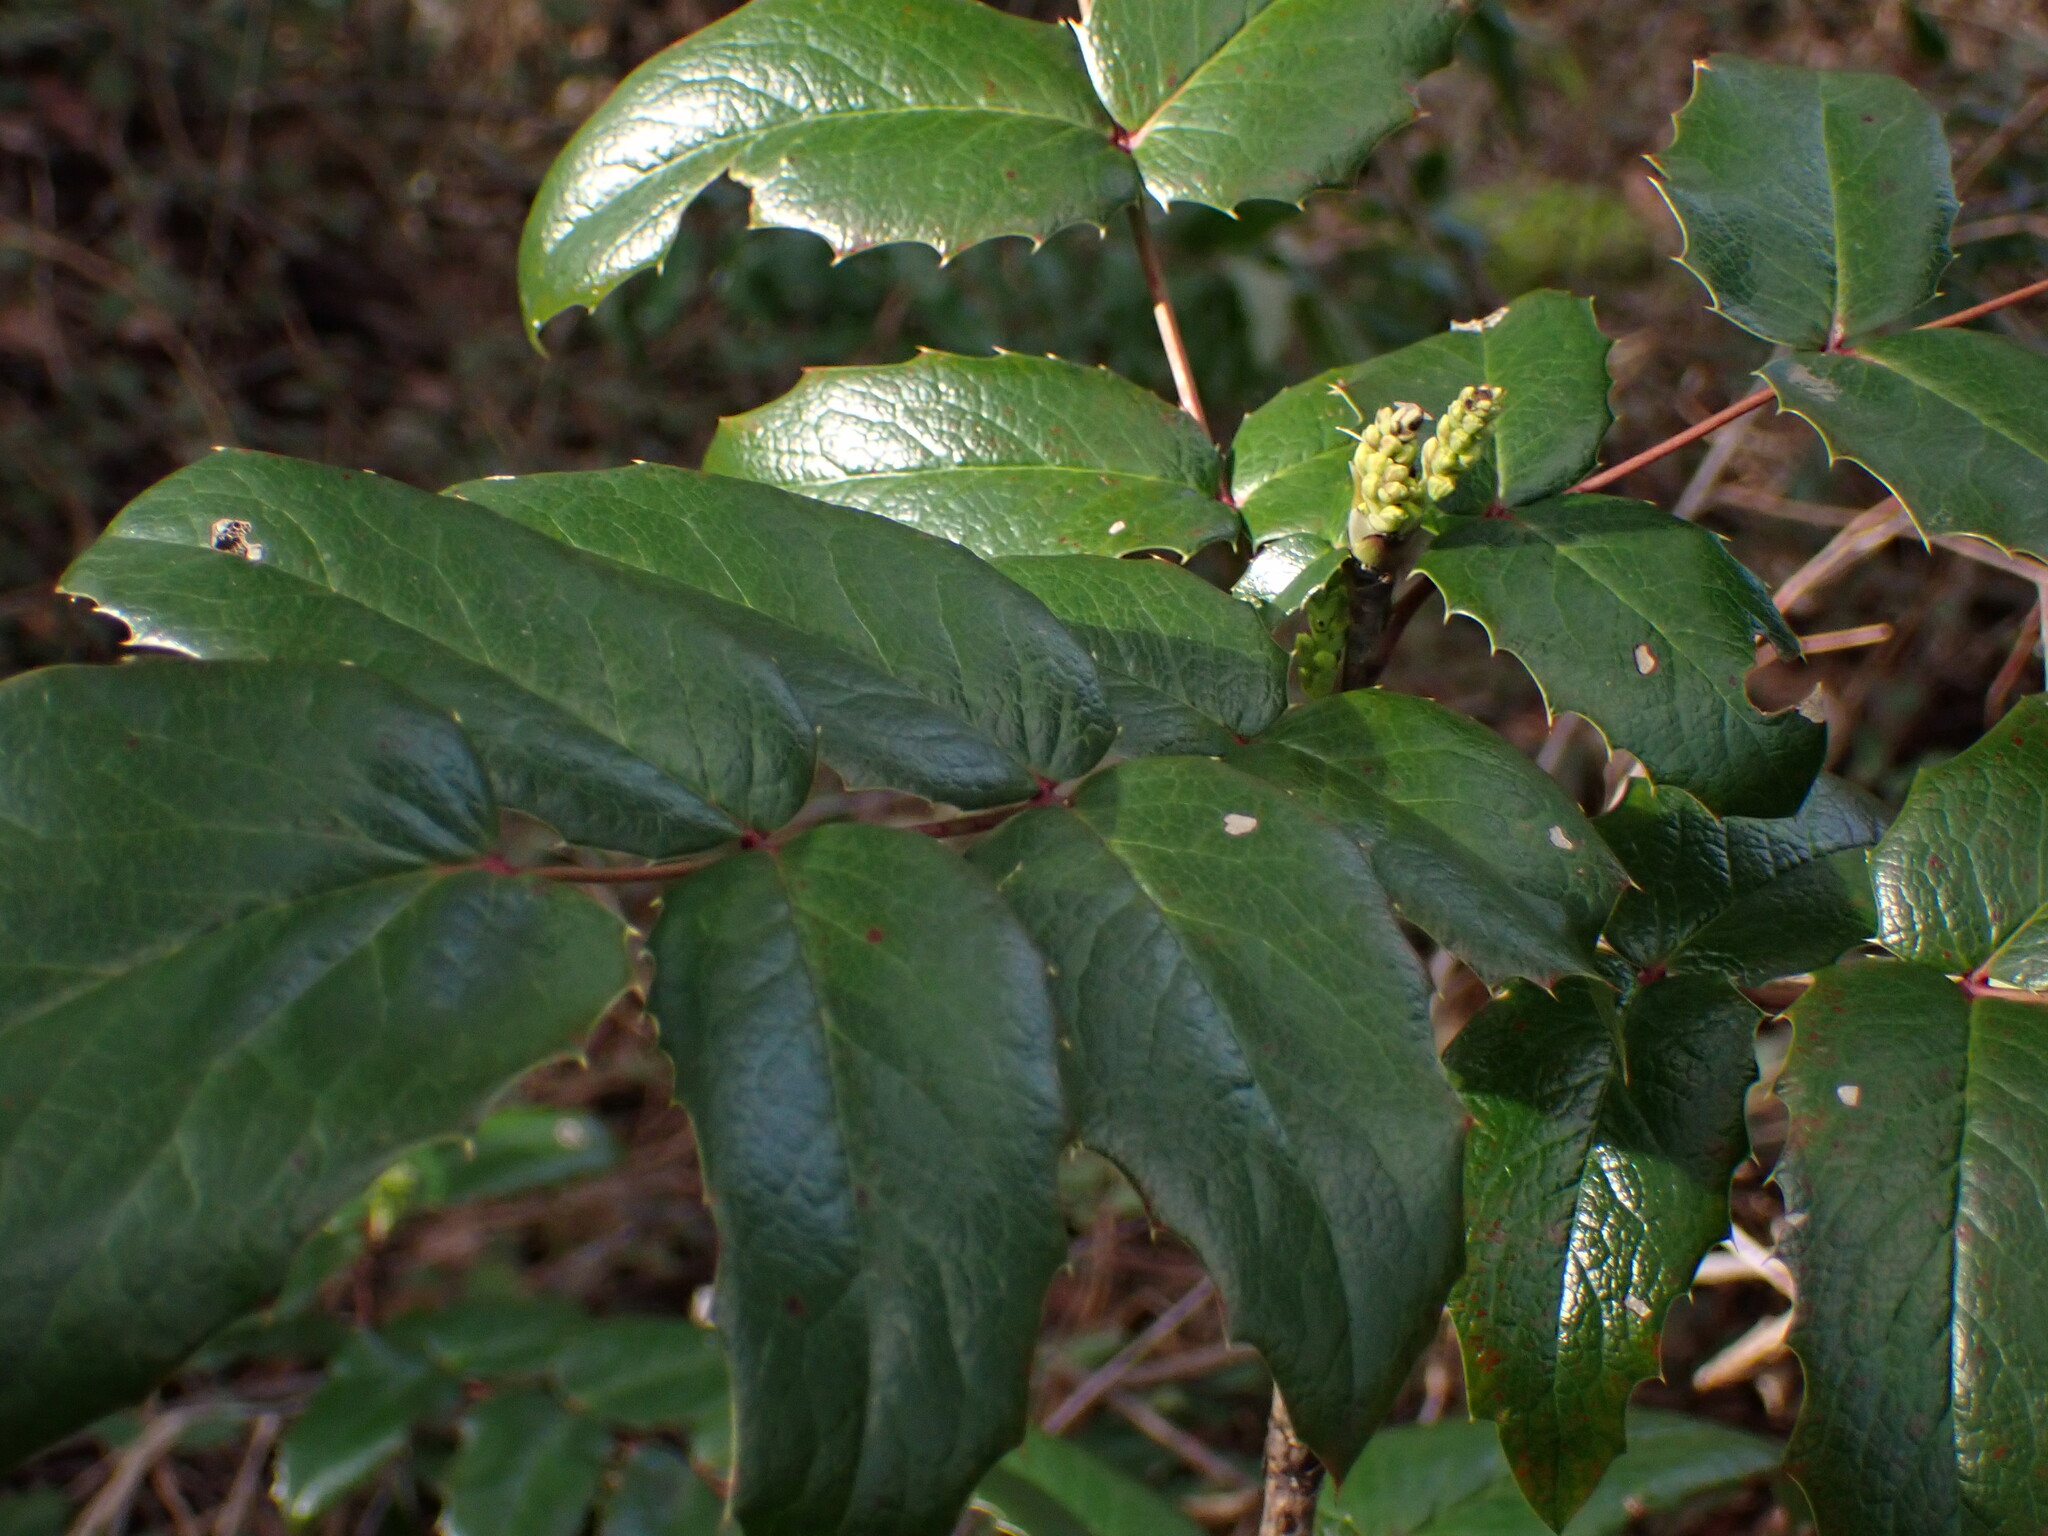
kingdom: Plantae
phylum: Tracheophyta
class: Magnoliopsida
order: Ranunculales
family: Berberidaceae
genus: Mahonia
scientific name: Mahonia aquifolium
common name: Oregon-grape
